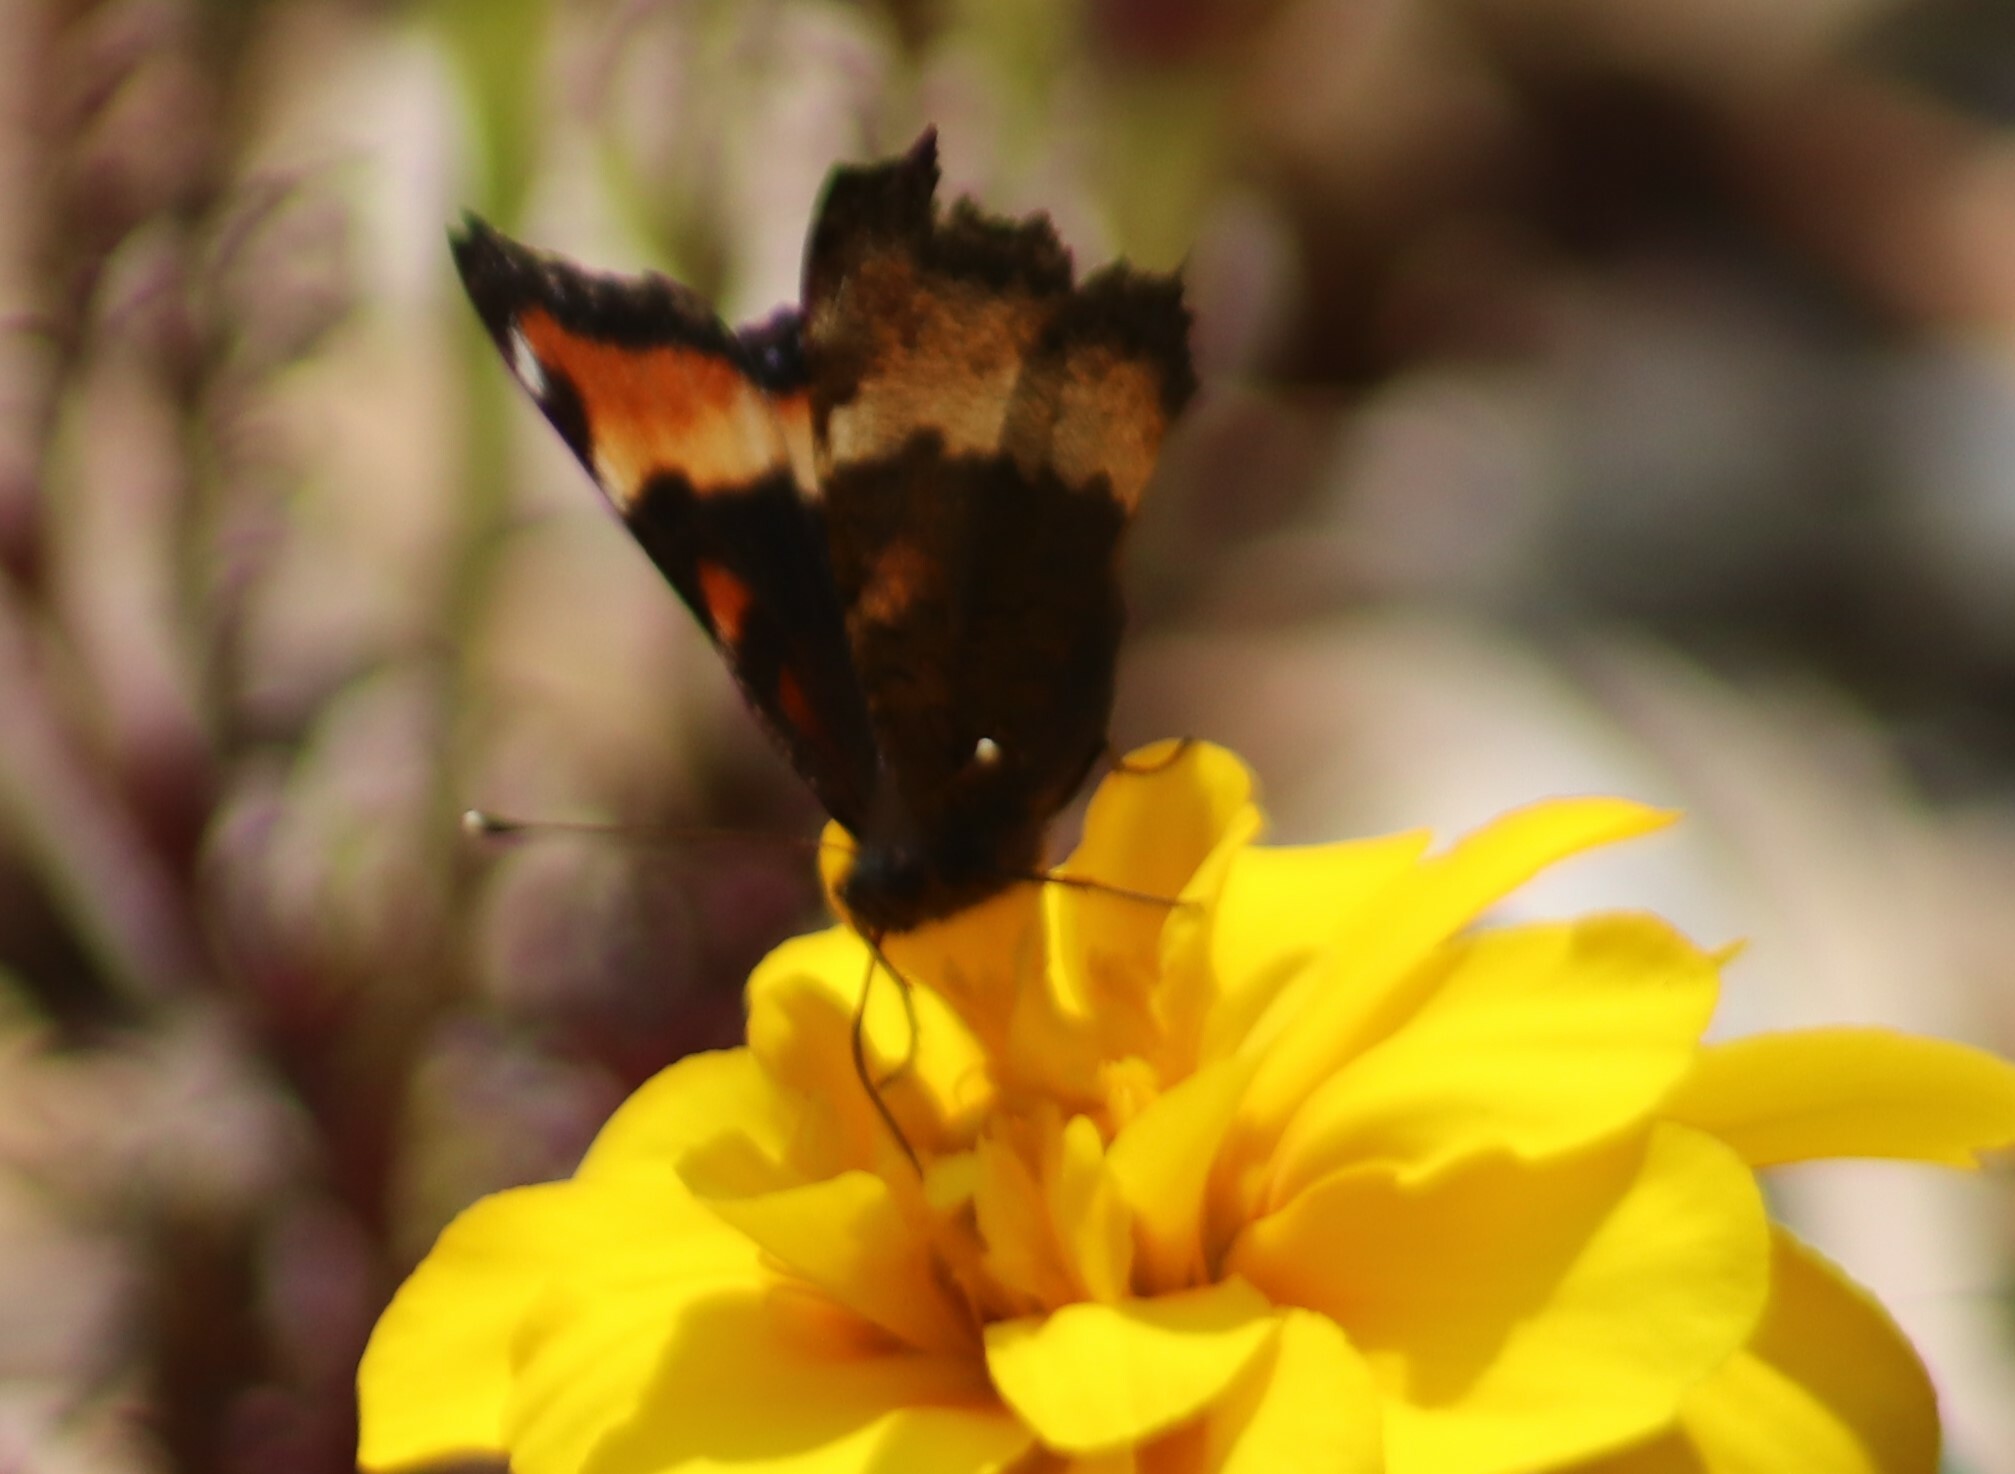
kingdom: Animalia
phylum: Arthropoda
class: Insecta
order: Lepidoptera
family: Nymphalidae
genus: Aglais
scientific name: Aglais milberti
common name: Milbert's tortoiseshell
